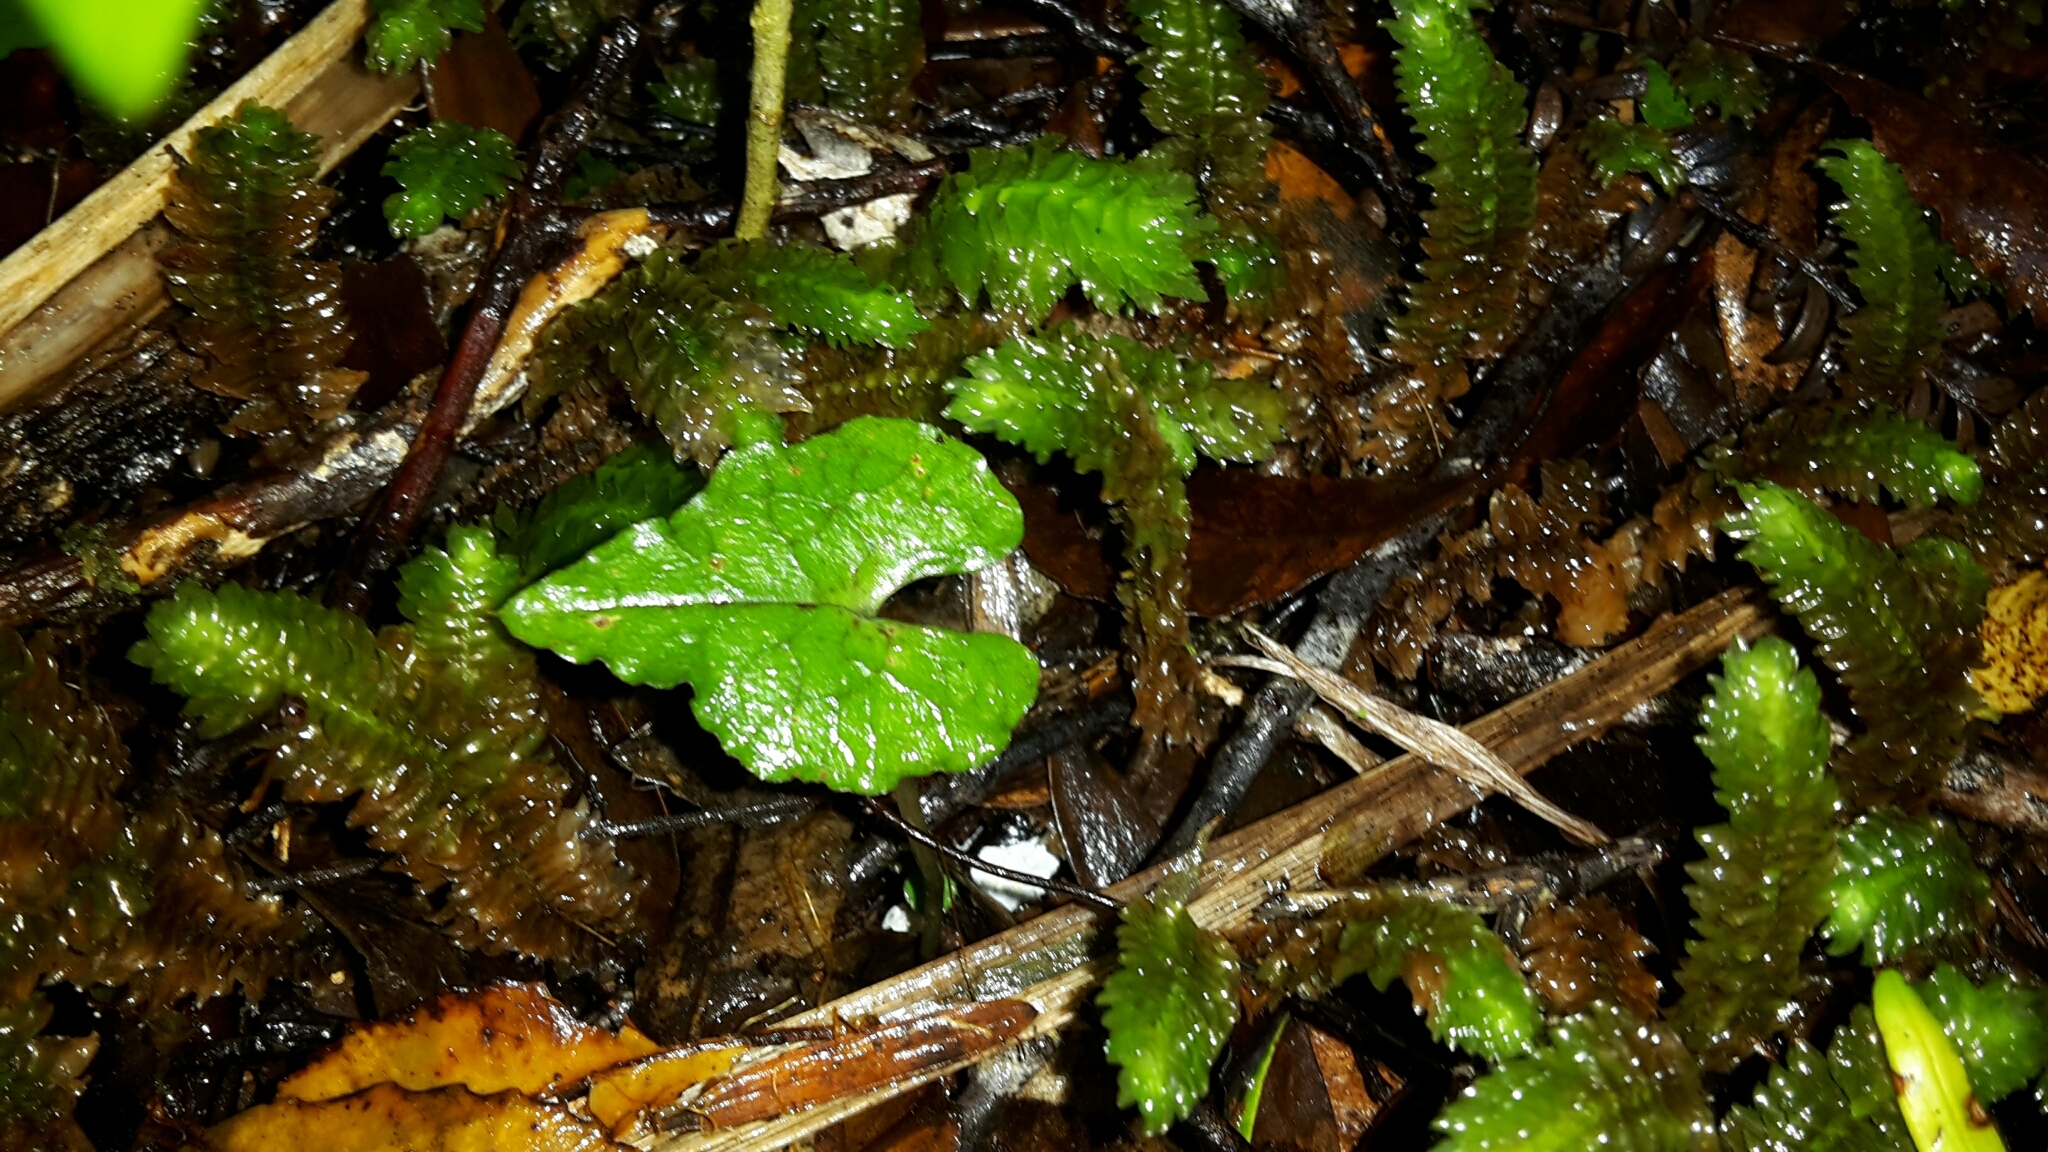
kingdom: Plantae
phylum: Tracheophyta
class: Liliopsida
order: Asparagales
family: Orchidaceae
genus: Corybas
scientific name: Corybas acuminatus
